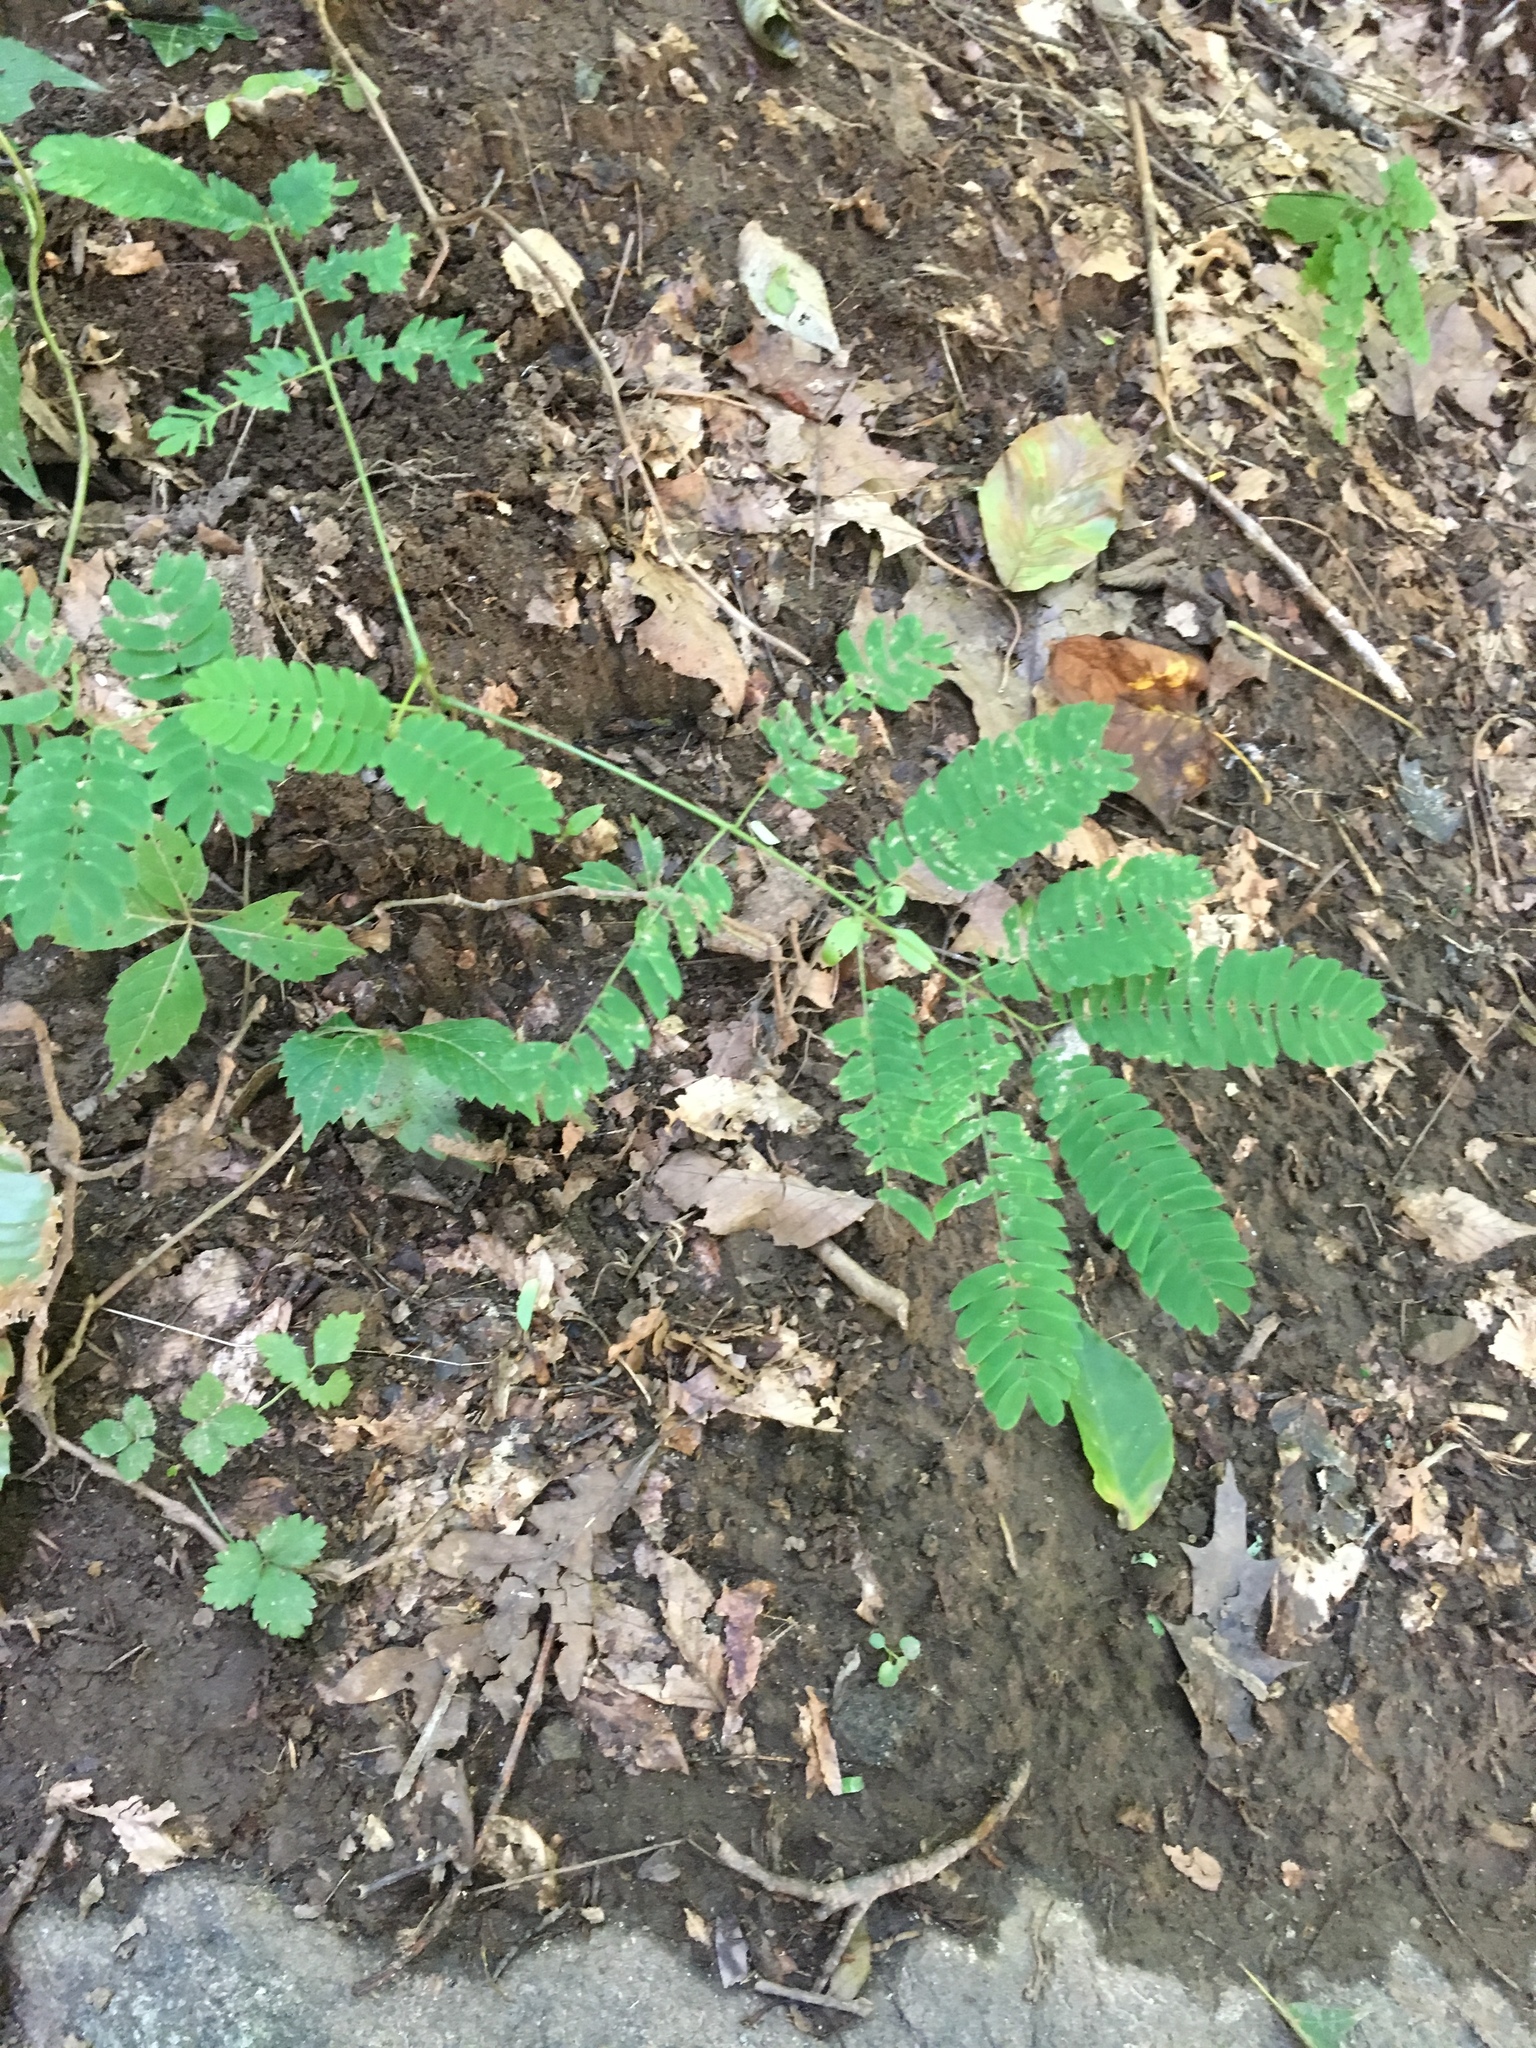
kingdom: Plantae
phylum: Tracheophyta
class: Magnoliopsida
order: Fabales
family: Fabaceae
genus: Albizia
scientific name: Albizia julibrissin
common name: Silktree
